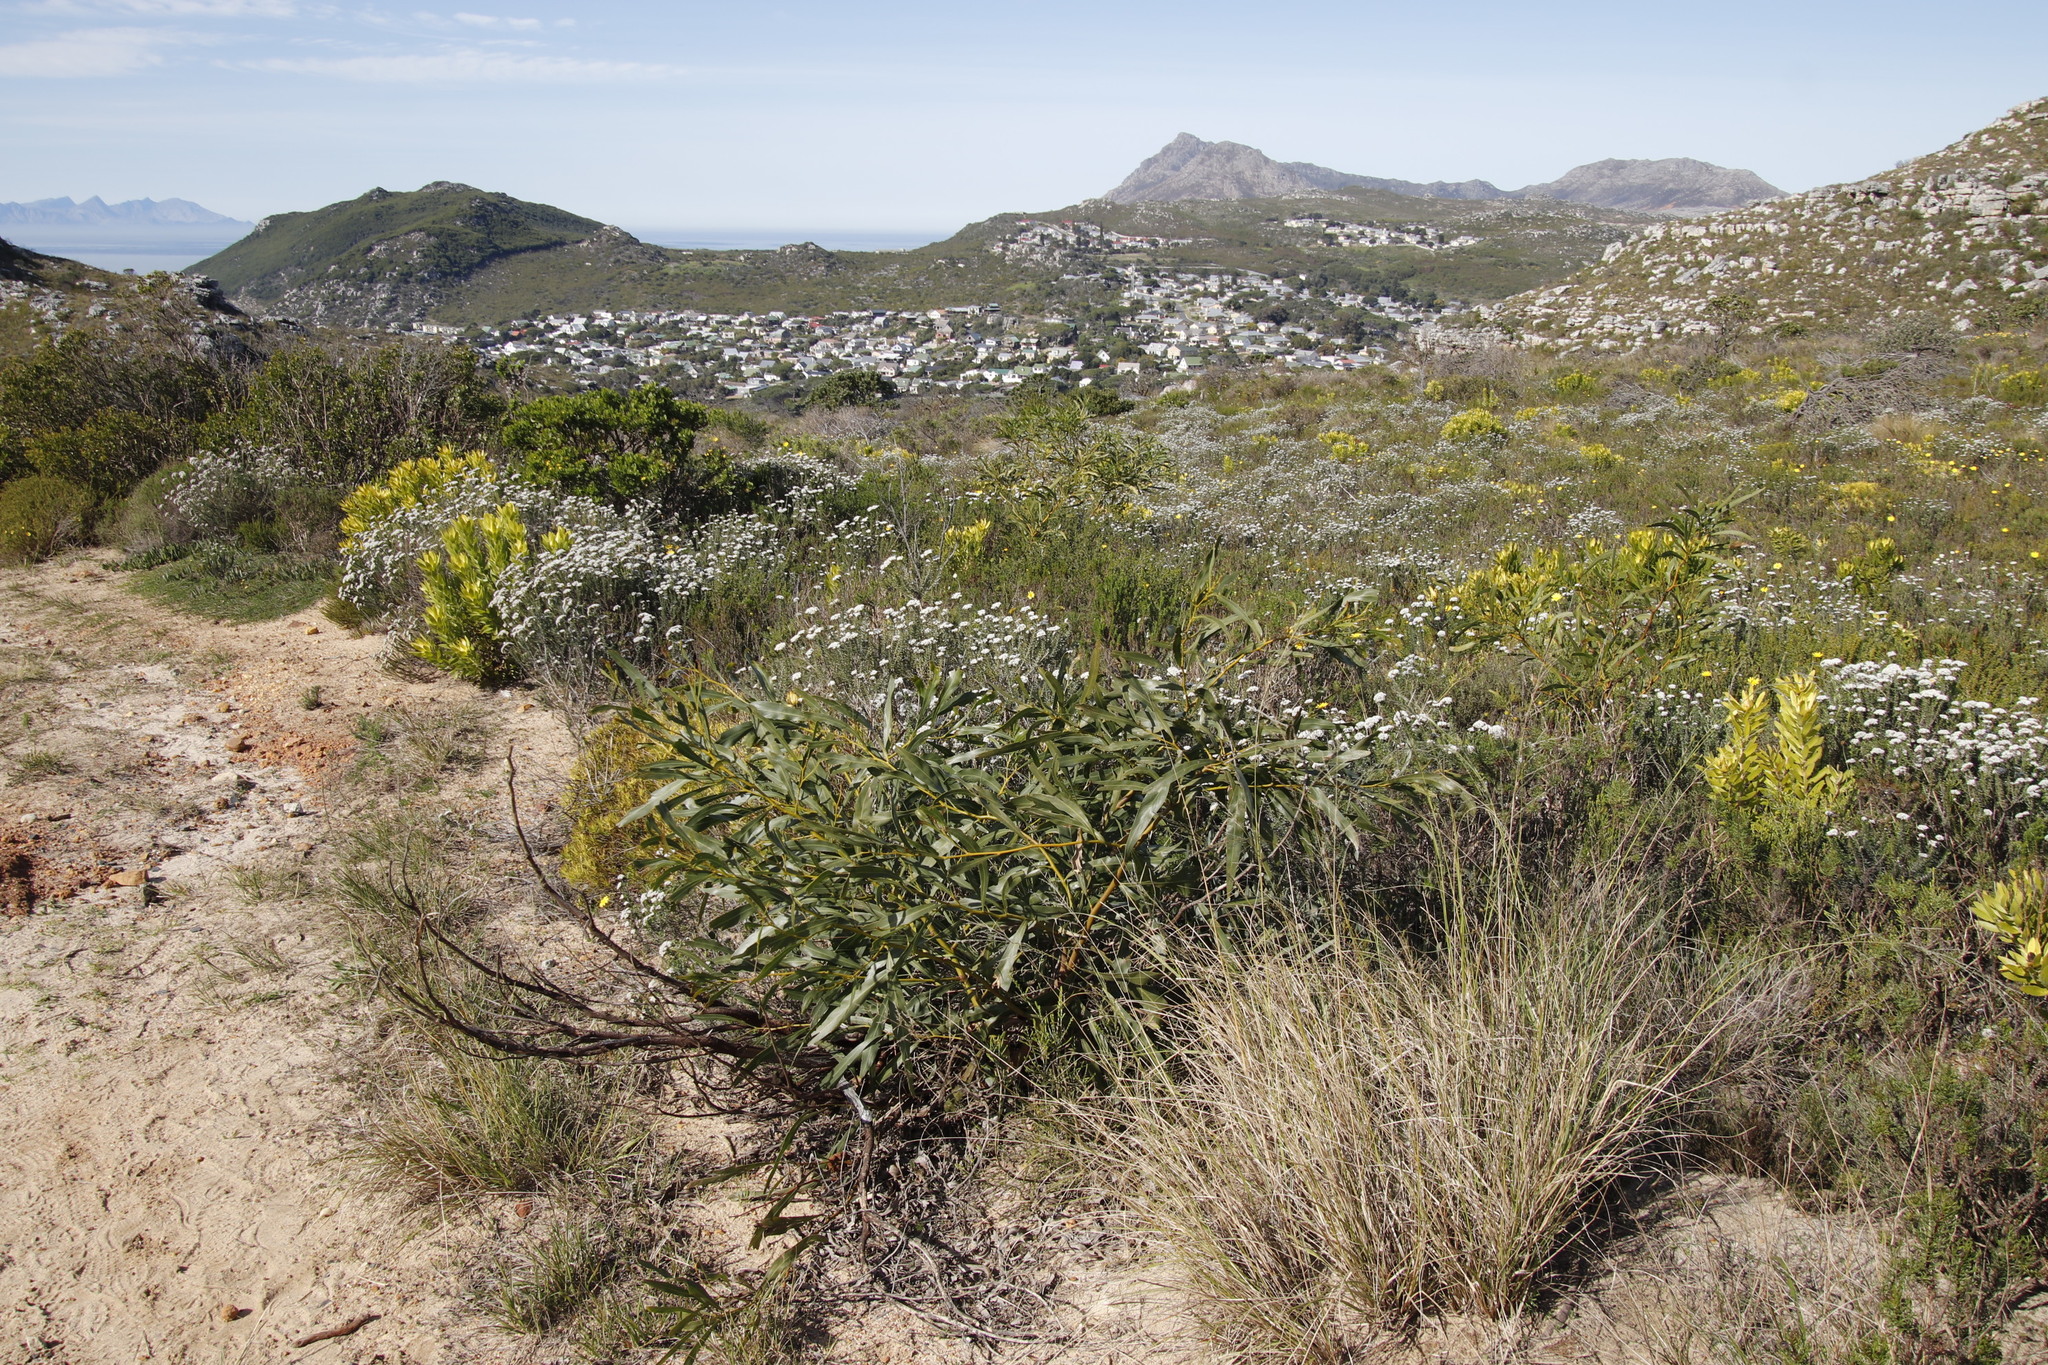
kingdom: Plantae
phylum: Tracheophyta
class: Magnoliopsida
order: Fabales
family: Fabaceae
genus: Acacia
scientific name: Acacia saligna
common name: Orange wattle
